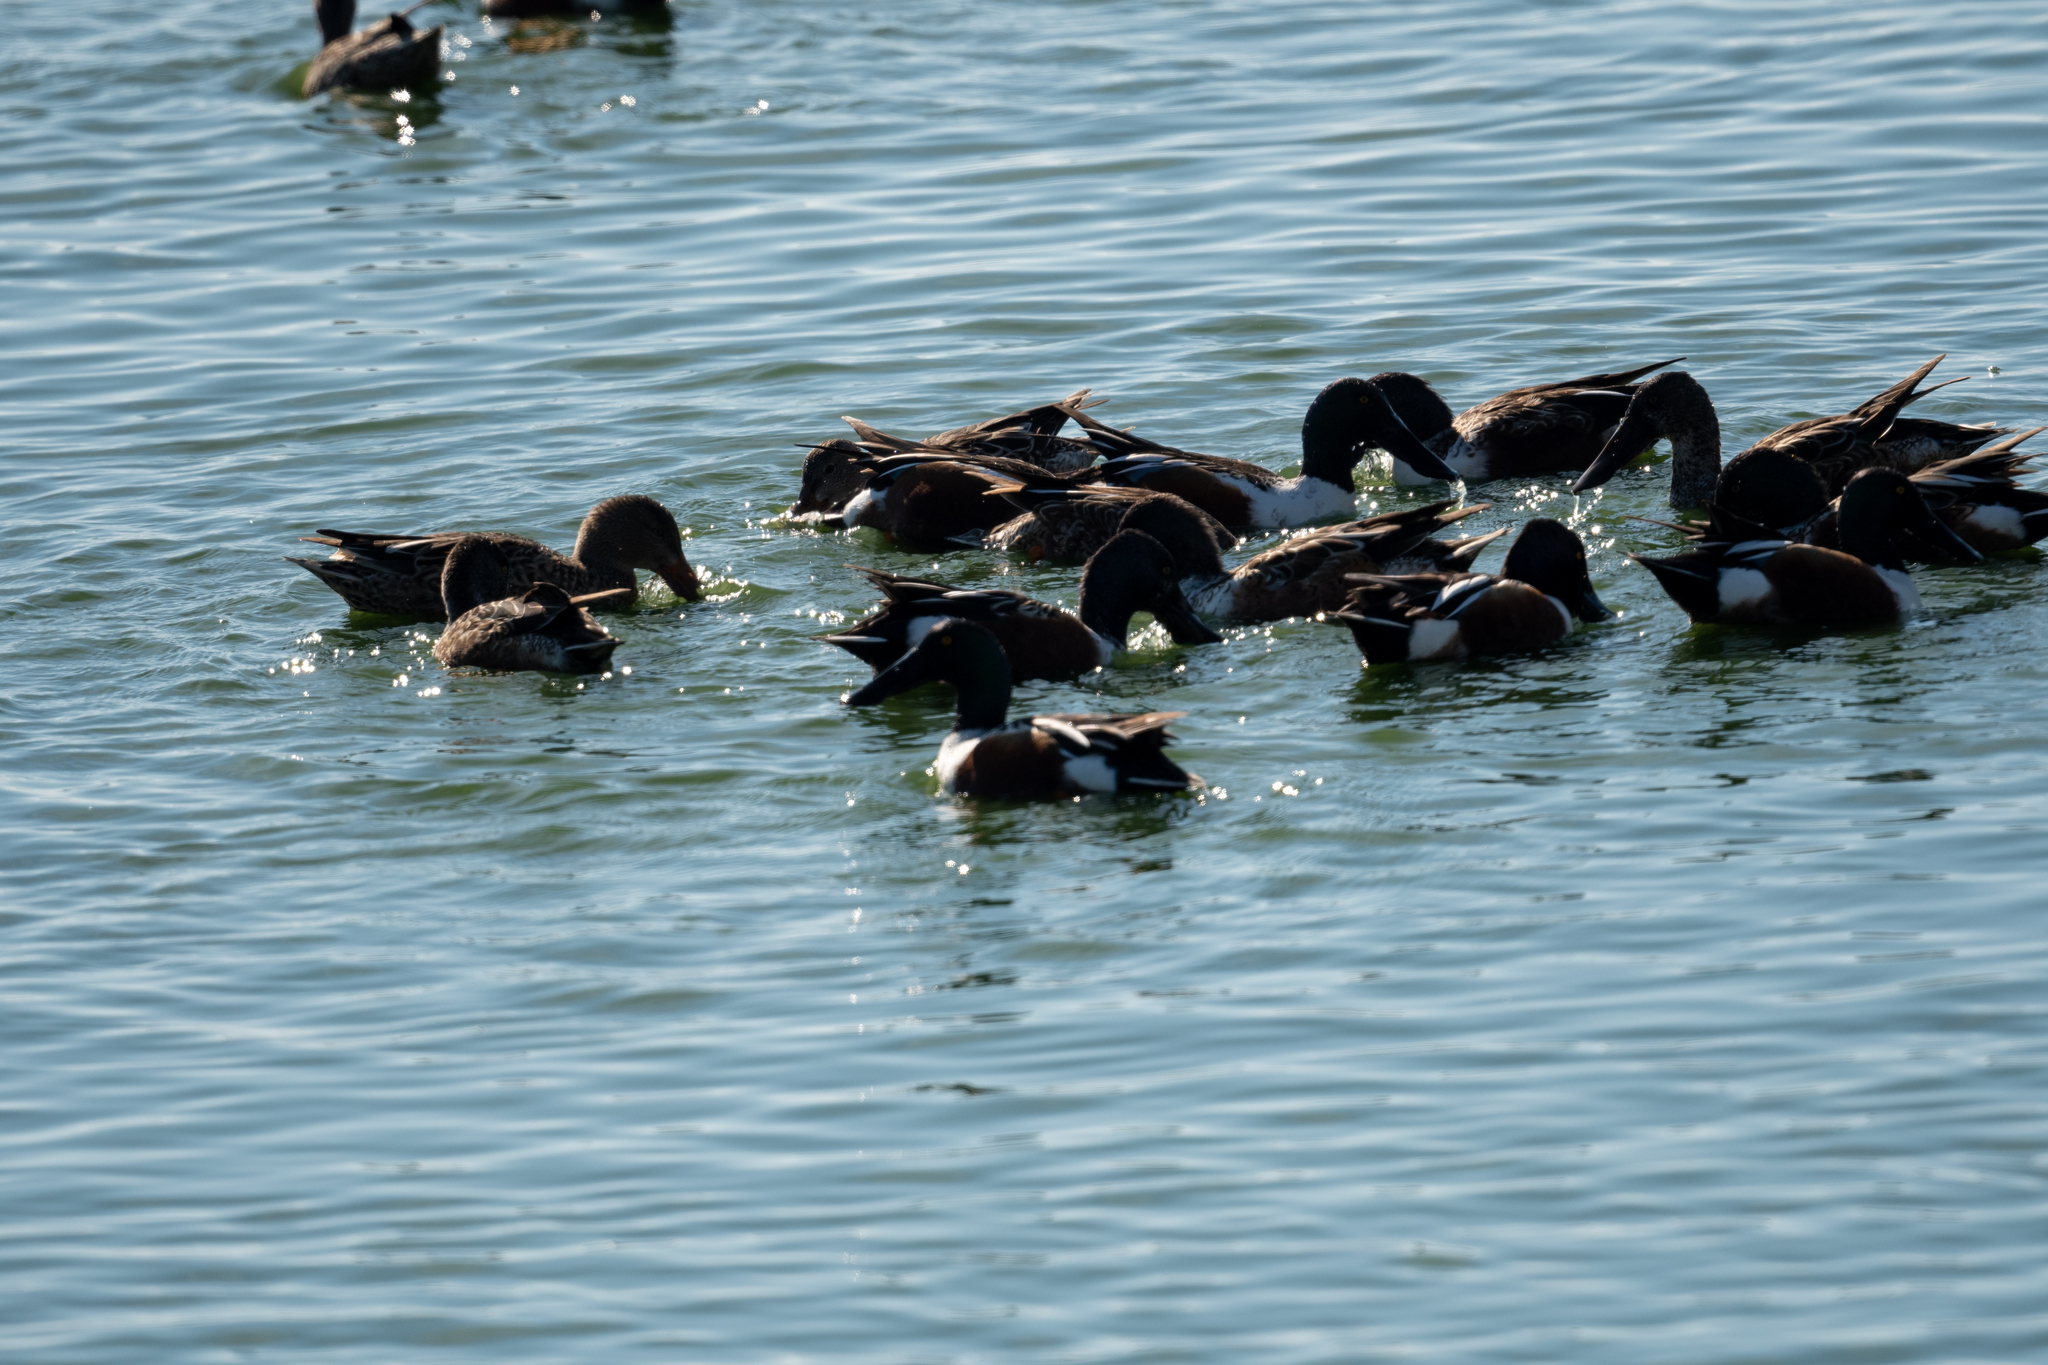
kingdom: Animalia
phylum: Chordata
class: Aves
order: Anseriformes
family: Anatidae
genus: Spatula
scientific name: Spatula clypeata
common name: Northern shoveler
